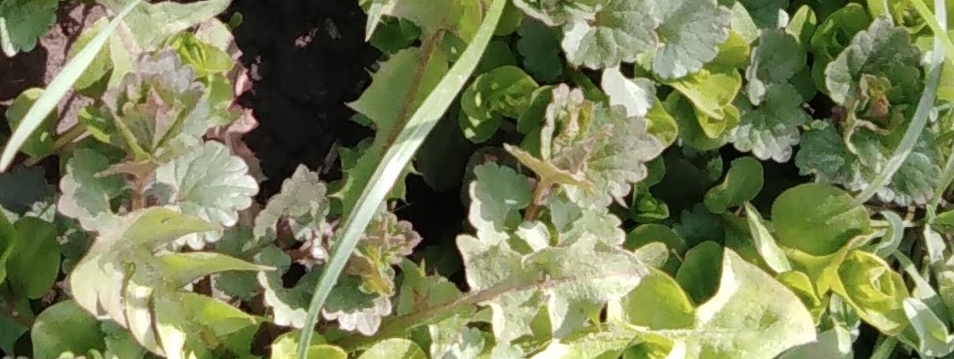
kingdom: Plantae
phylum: Tracheophyta
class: Magnoliopsida
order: Lamiales
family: Lamiaceae
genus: Glechoma
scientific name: Glechoma hederacea
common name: Ground ivy
